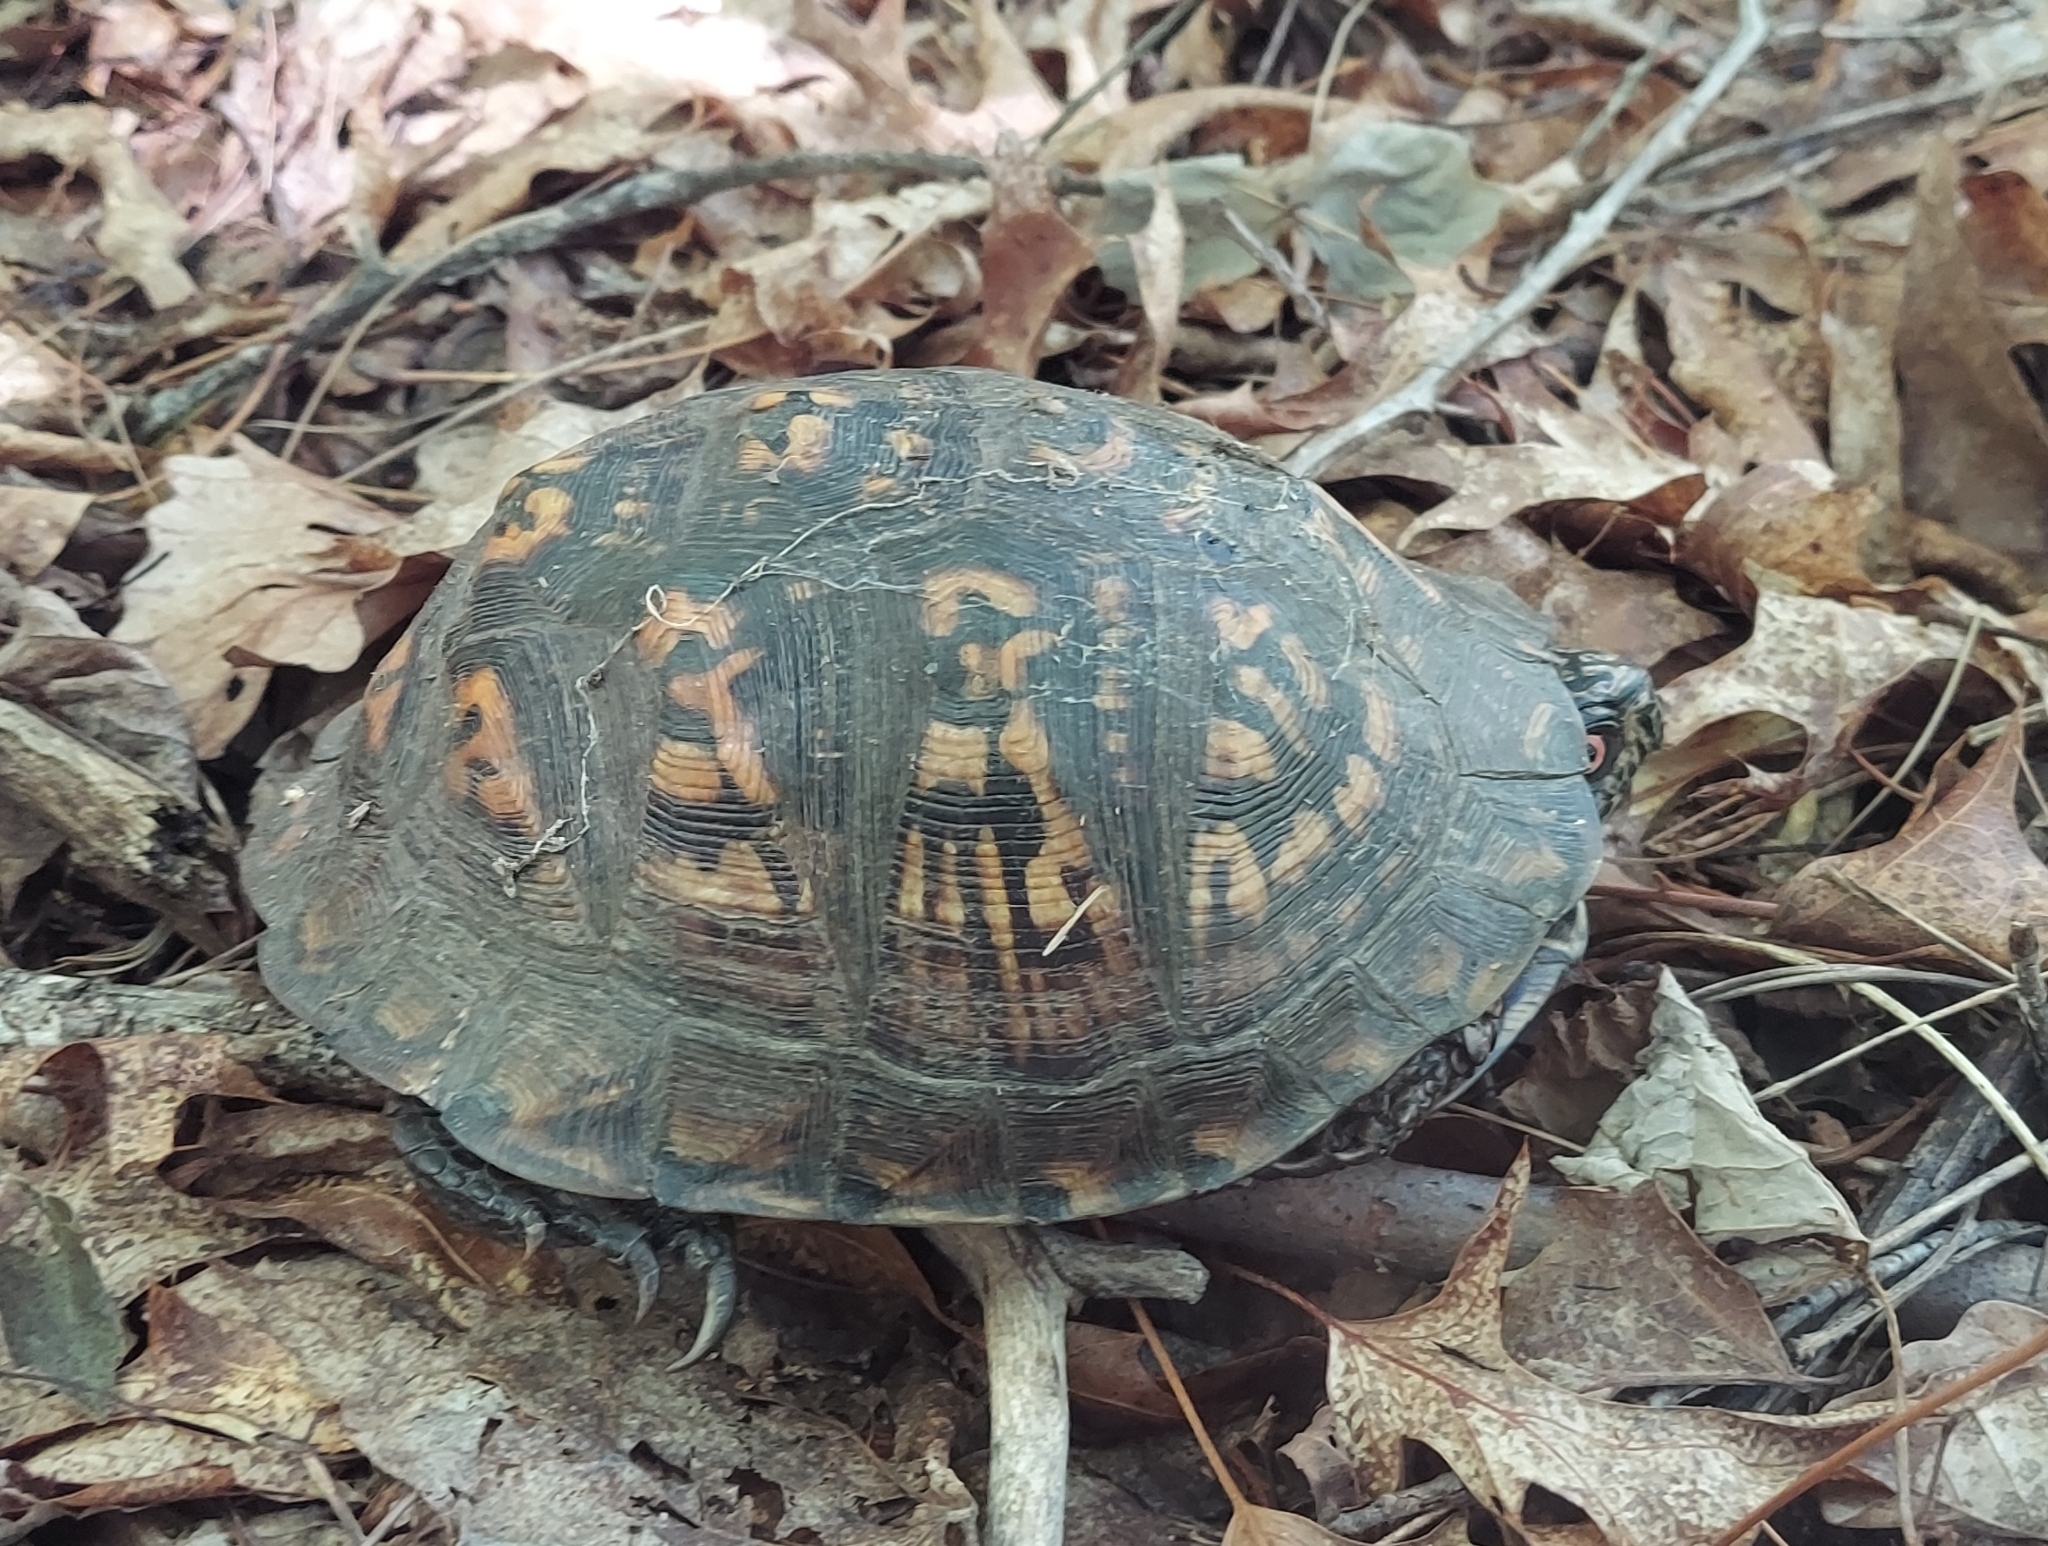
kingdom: Animalia
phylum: Chordata
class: Testudines
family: Emydidae
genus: Terrapene
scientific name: Terrapene carolina
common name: Common box turtle
